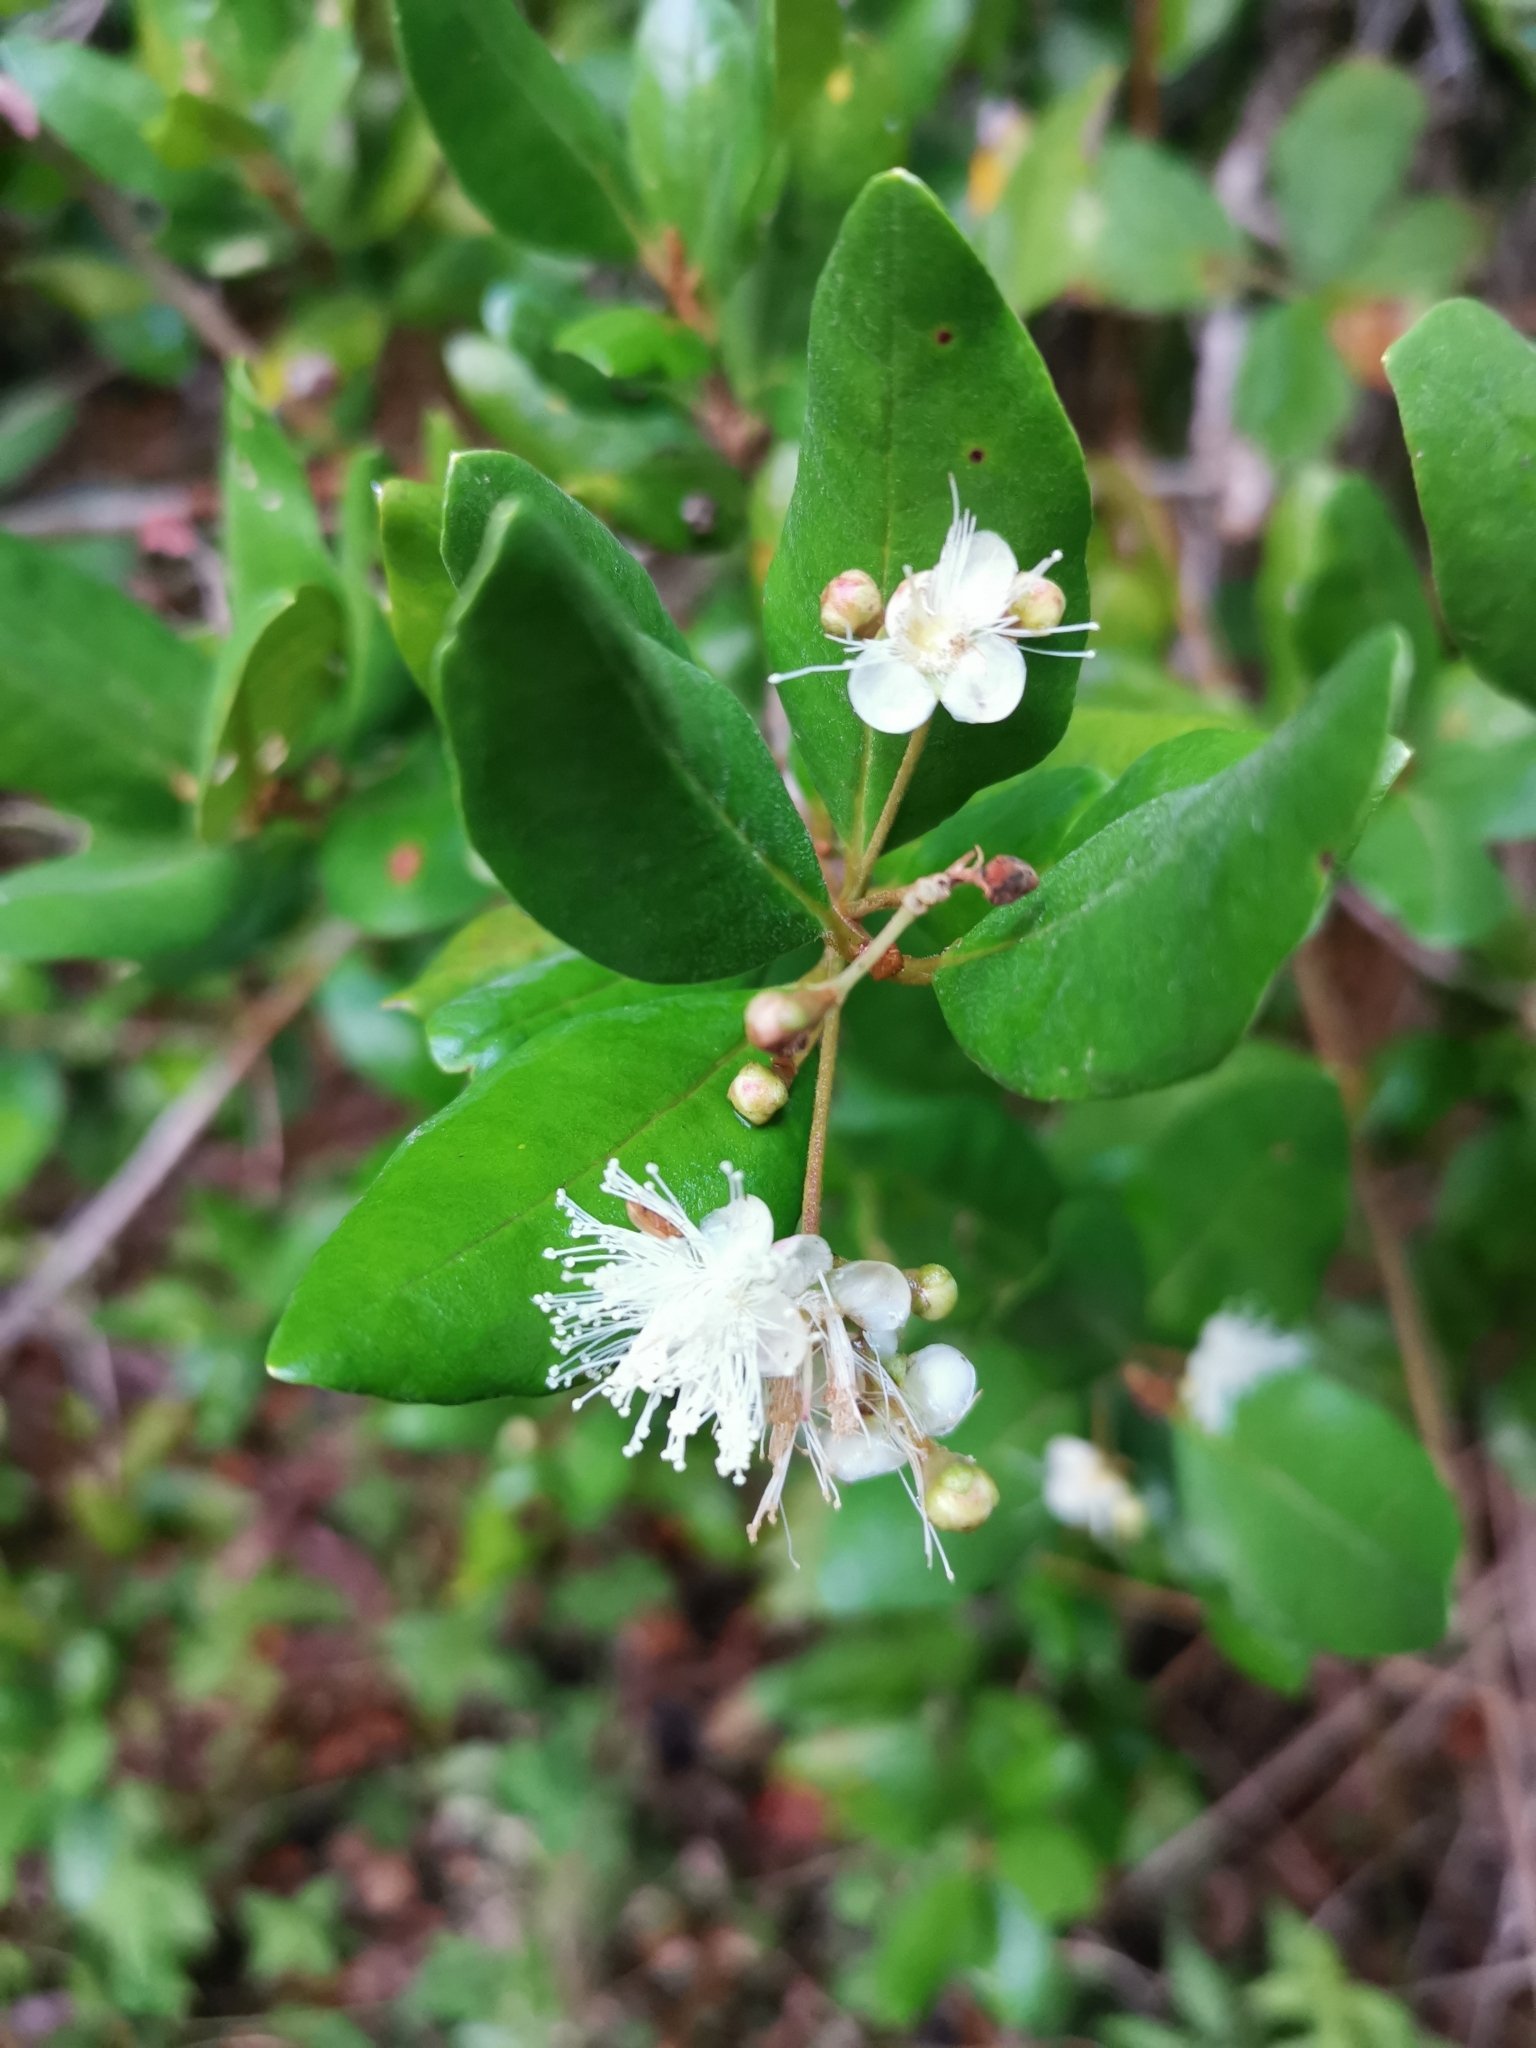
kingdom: Plantae
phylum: Tracheophyta
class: Magnoliopsida
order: Myrtales
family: Myrtaceae
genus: Myrceugenia
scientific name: Myrceugenia exsucca
